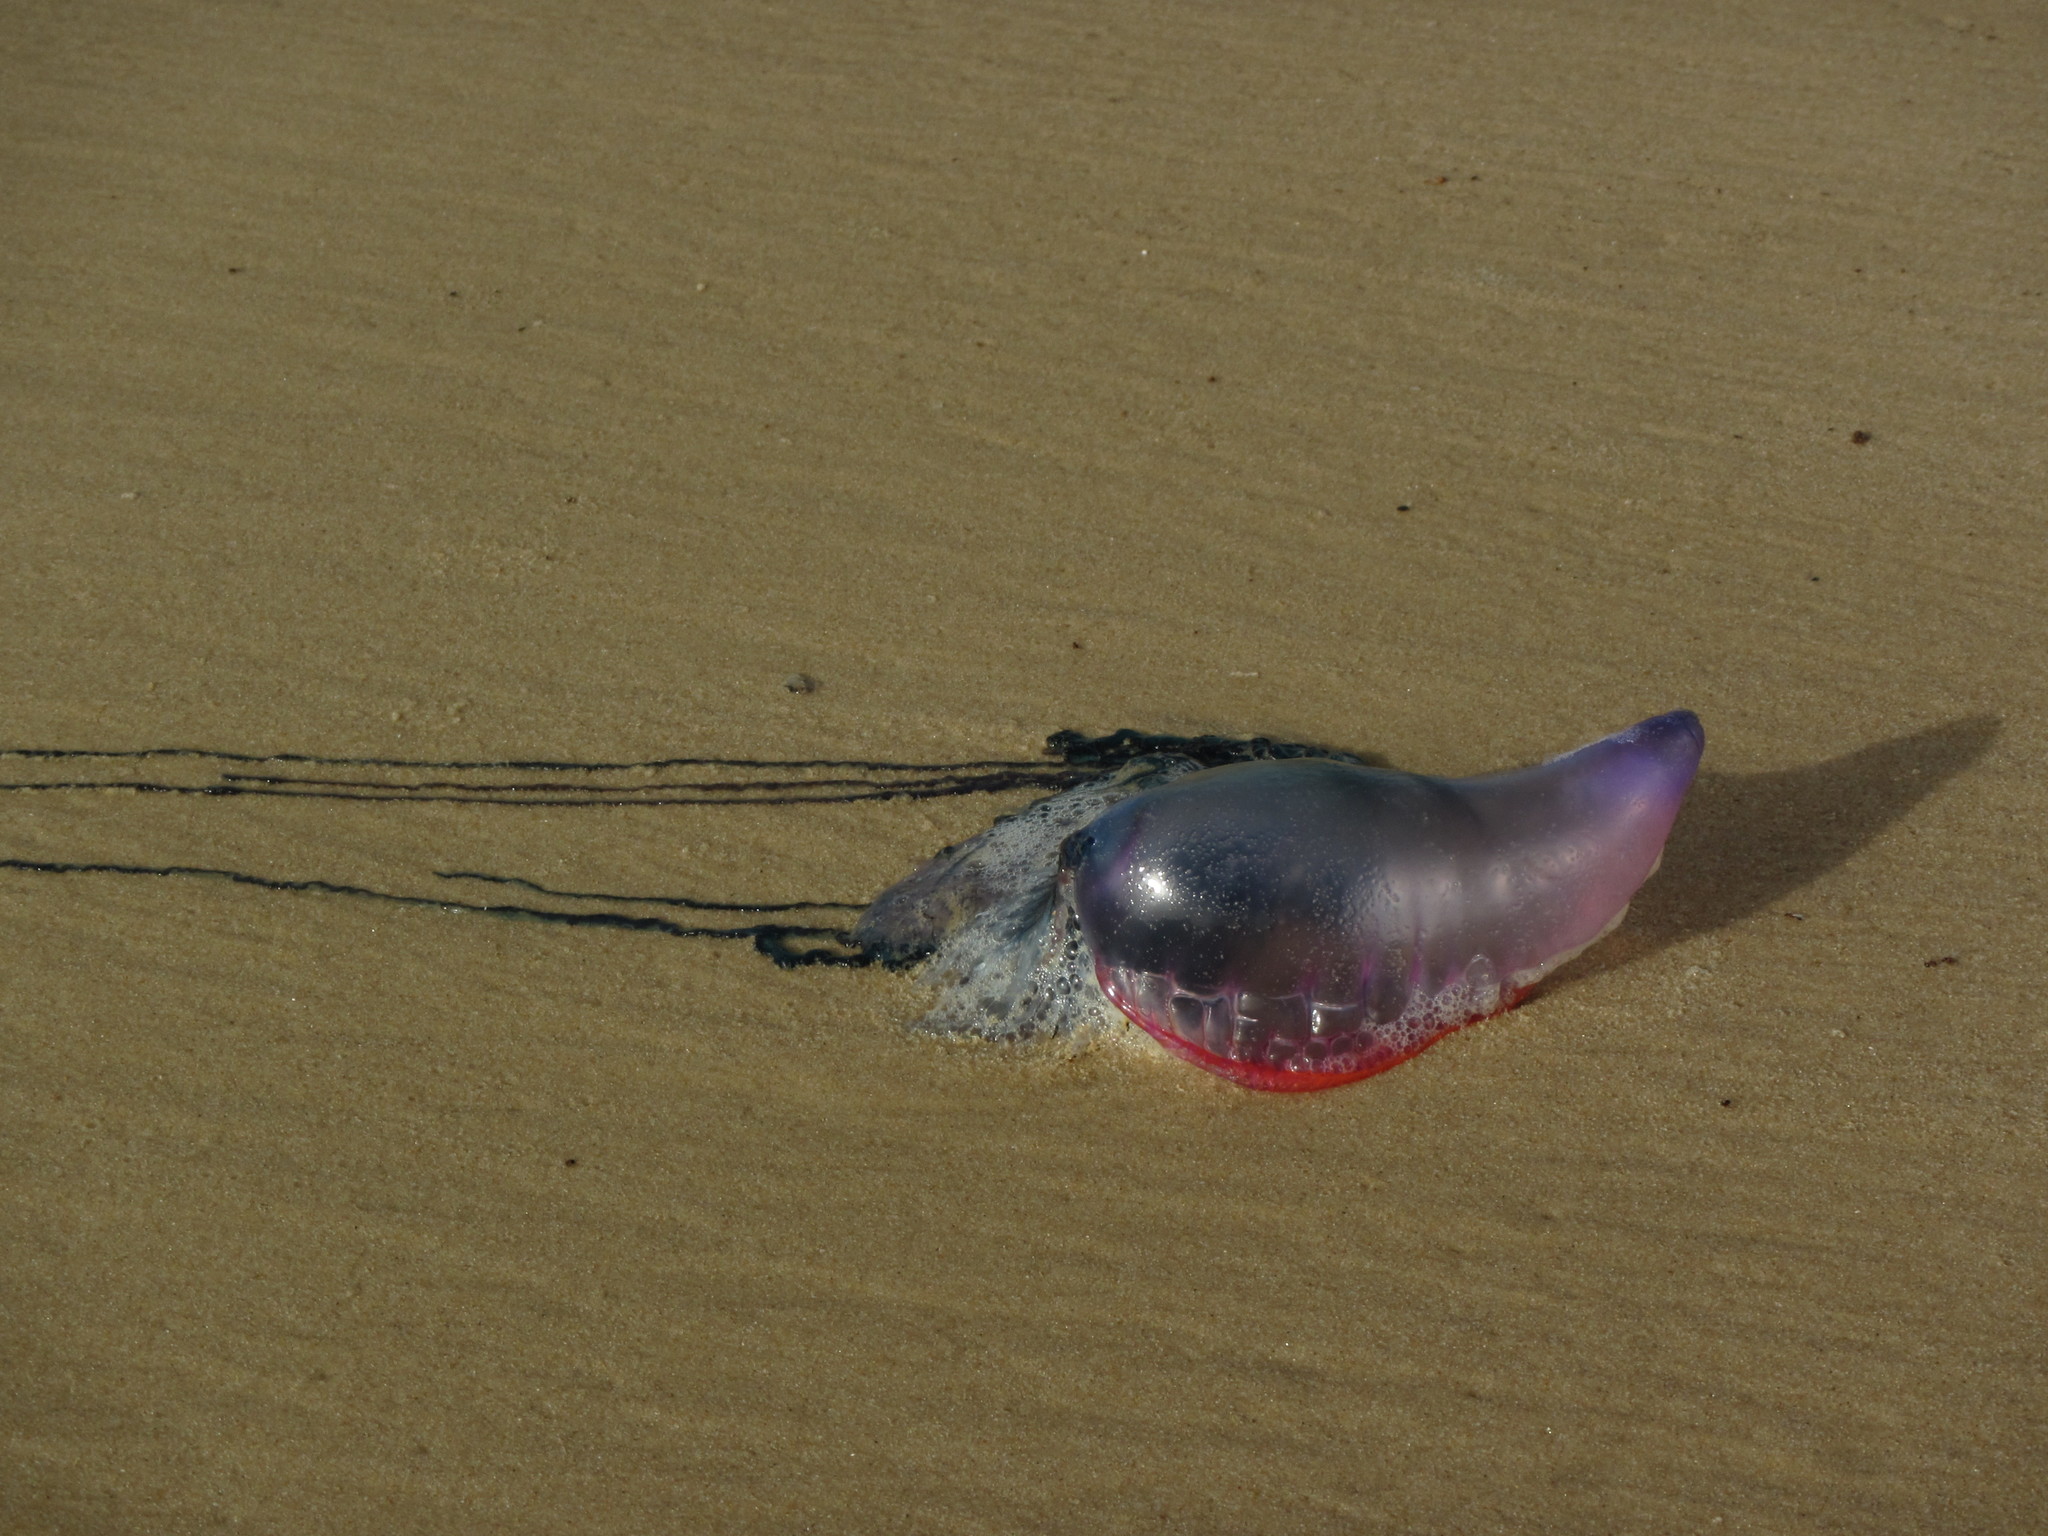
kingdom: Animalia
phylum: Cnidaria
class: Hydrozoa
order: Siphonophorae
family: Physaliidae
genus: Physalia
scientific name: Physalia physalis
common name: Portuguese man-of-war
